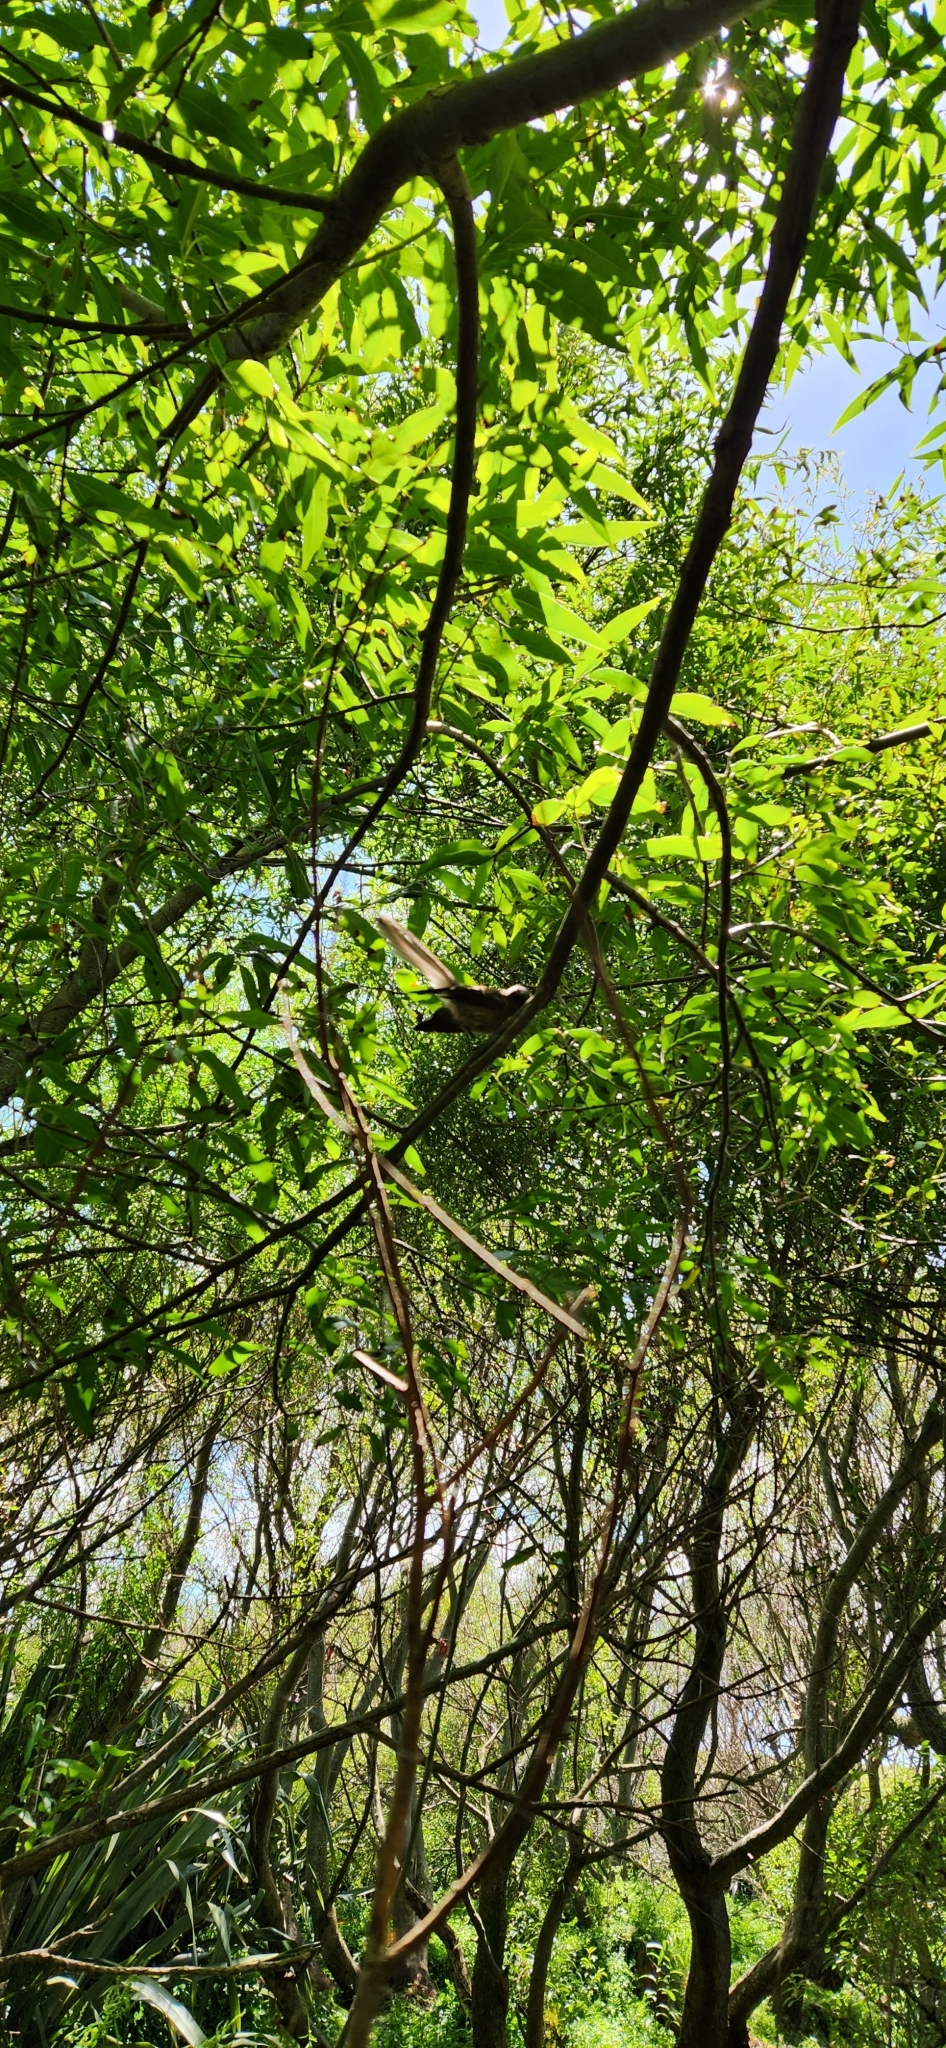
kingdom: Animalia
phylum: Chordata
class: Aves
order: Passeriformes
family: Rhipiduridae
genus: Rhipidura
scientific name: Rhipidura fuliginosa
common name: New zealand fantail
